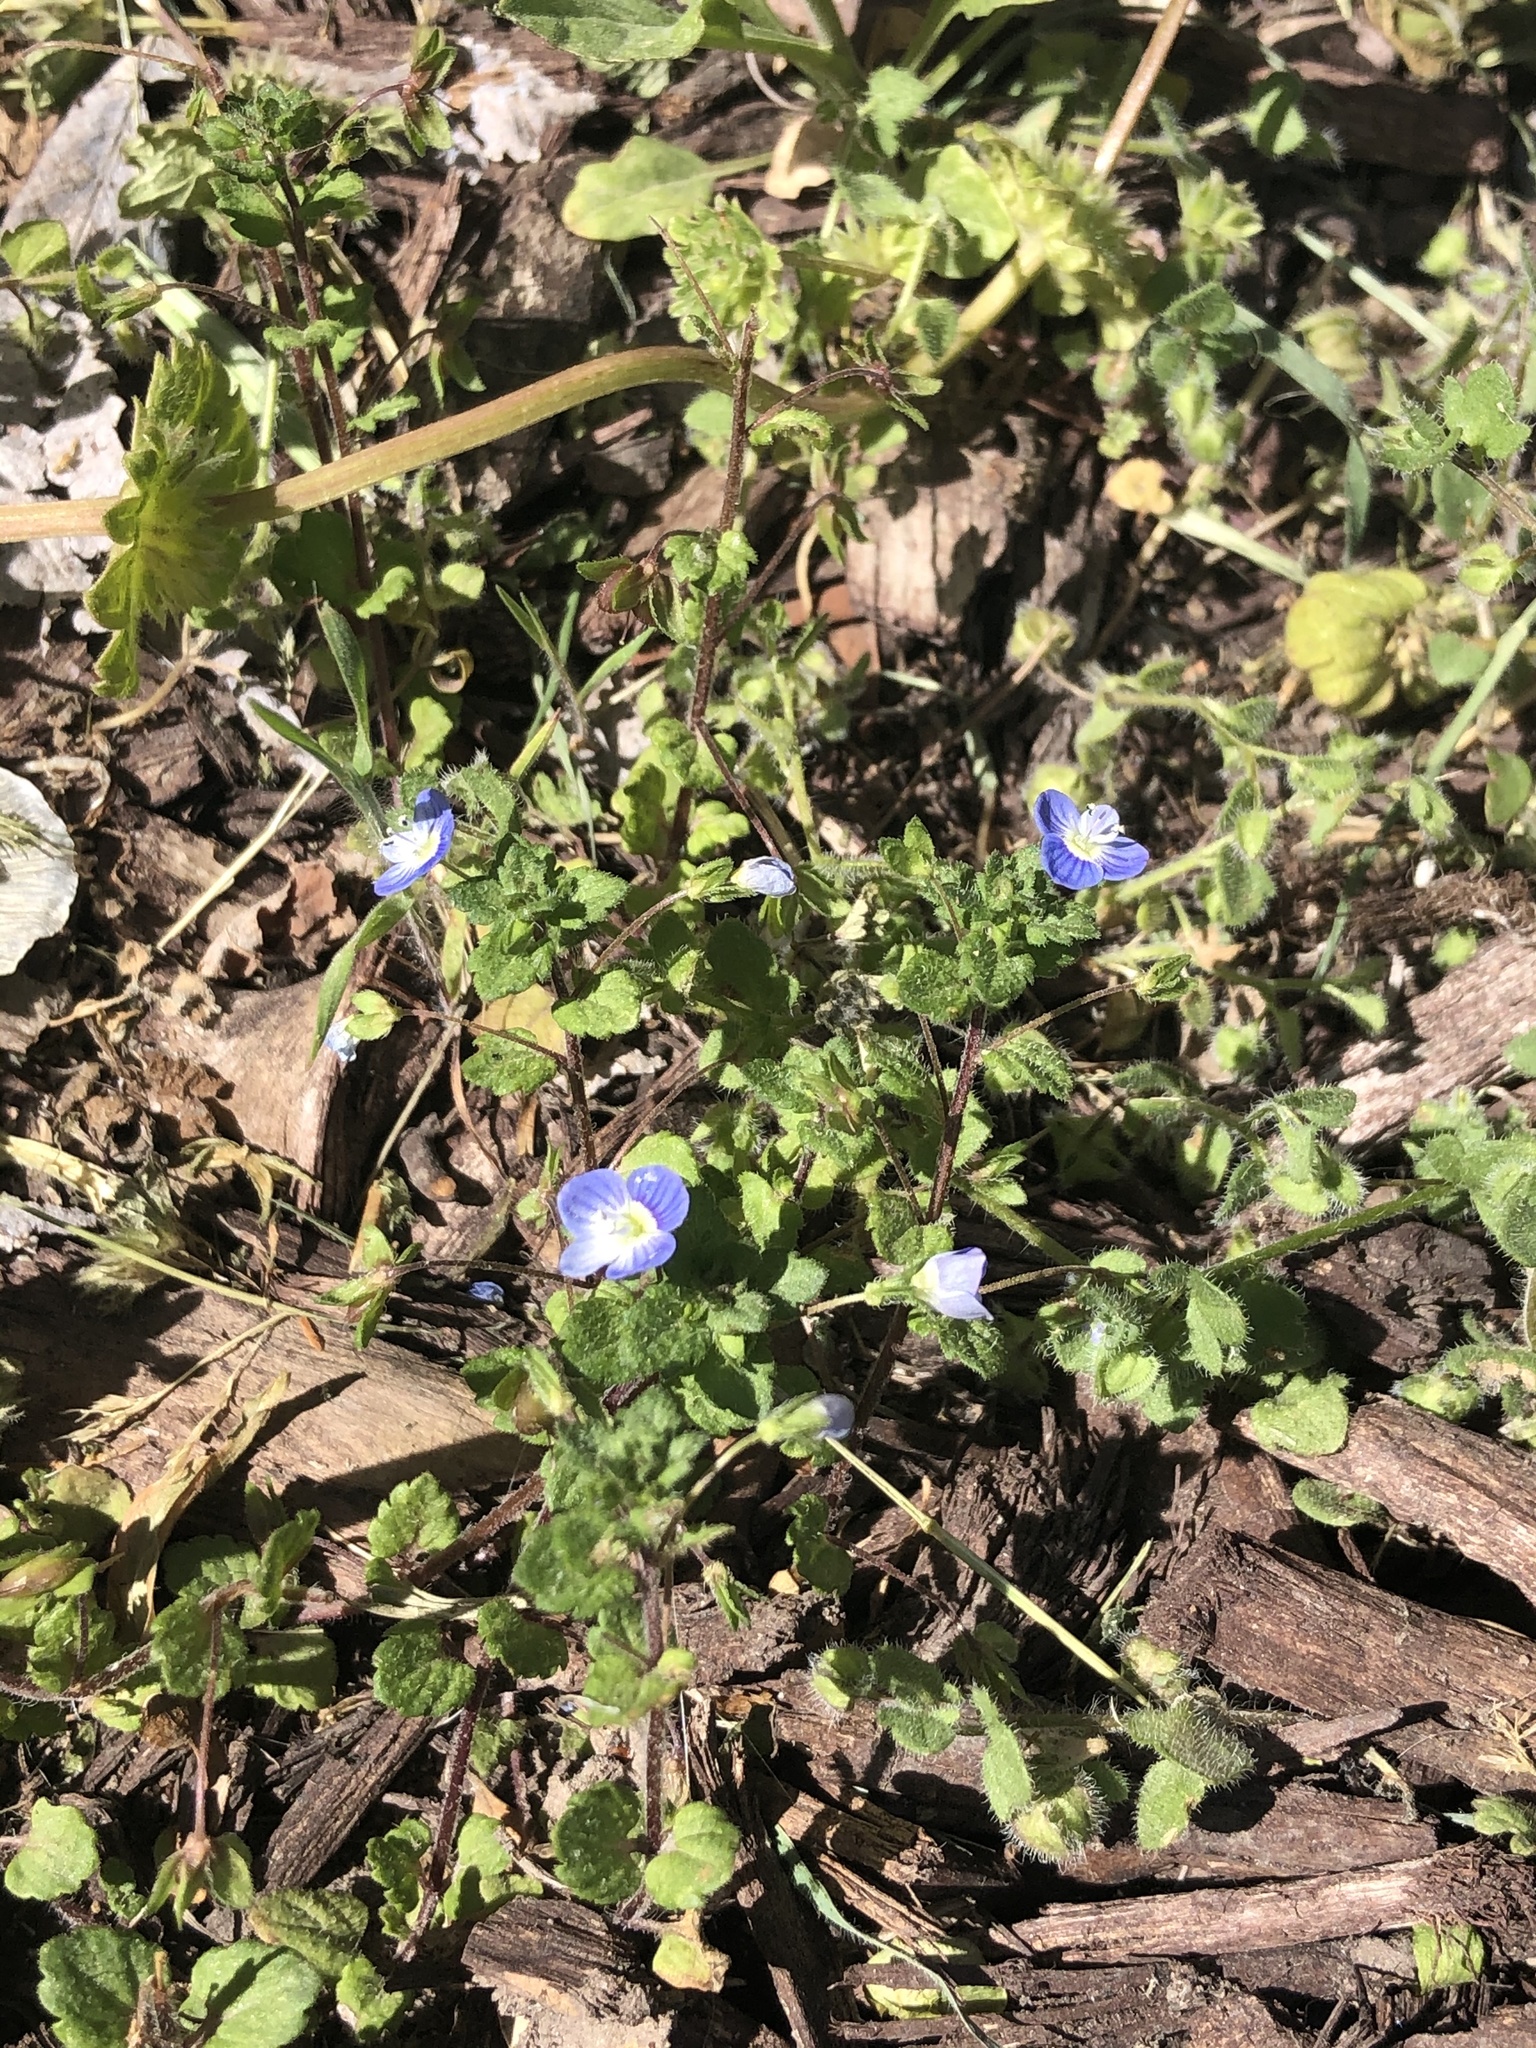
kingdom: Plantae
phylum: Tracheophyta
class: Magnoliopsida
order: Lamiales
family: Plantaginaceae
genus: Veronica
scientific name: Veronica persica
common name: Common field-speedwell
